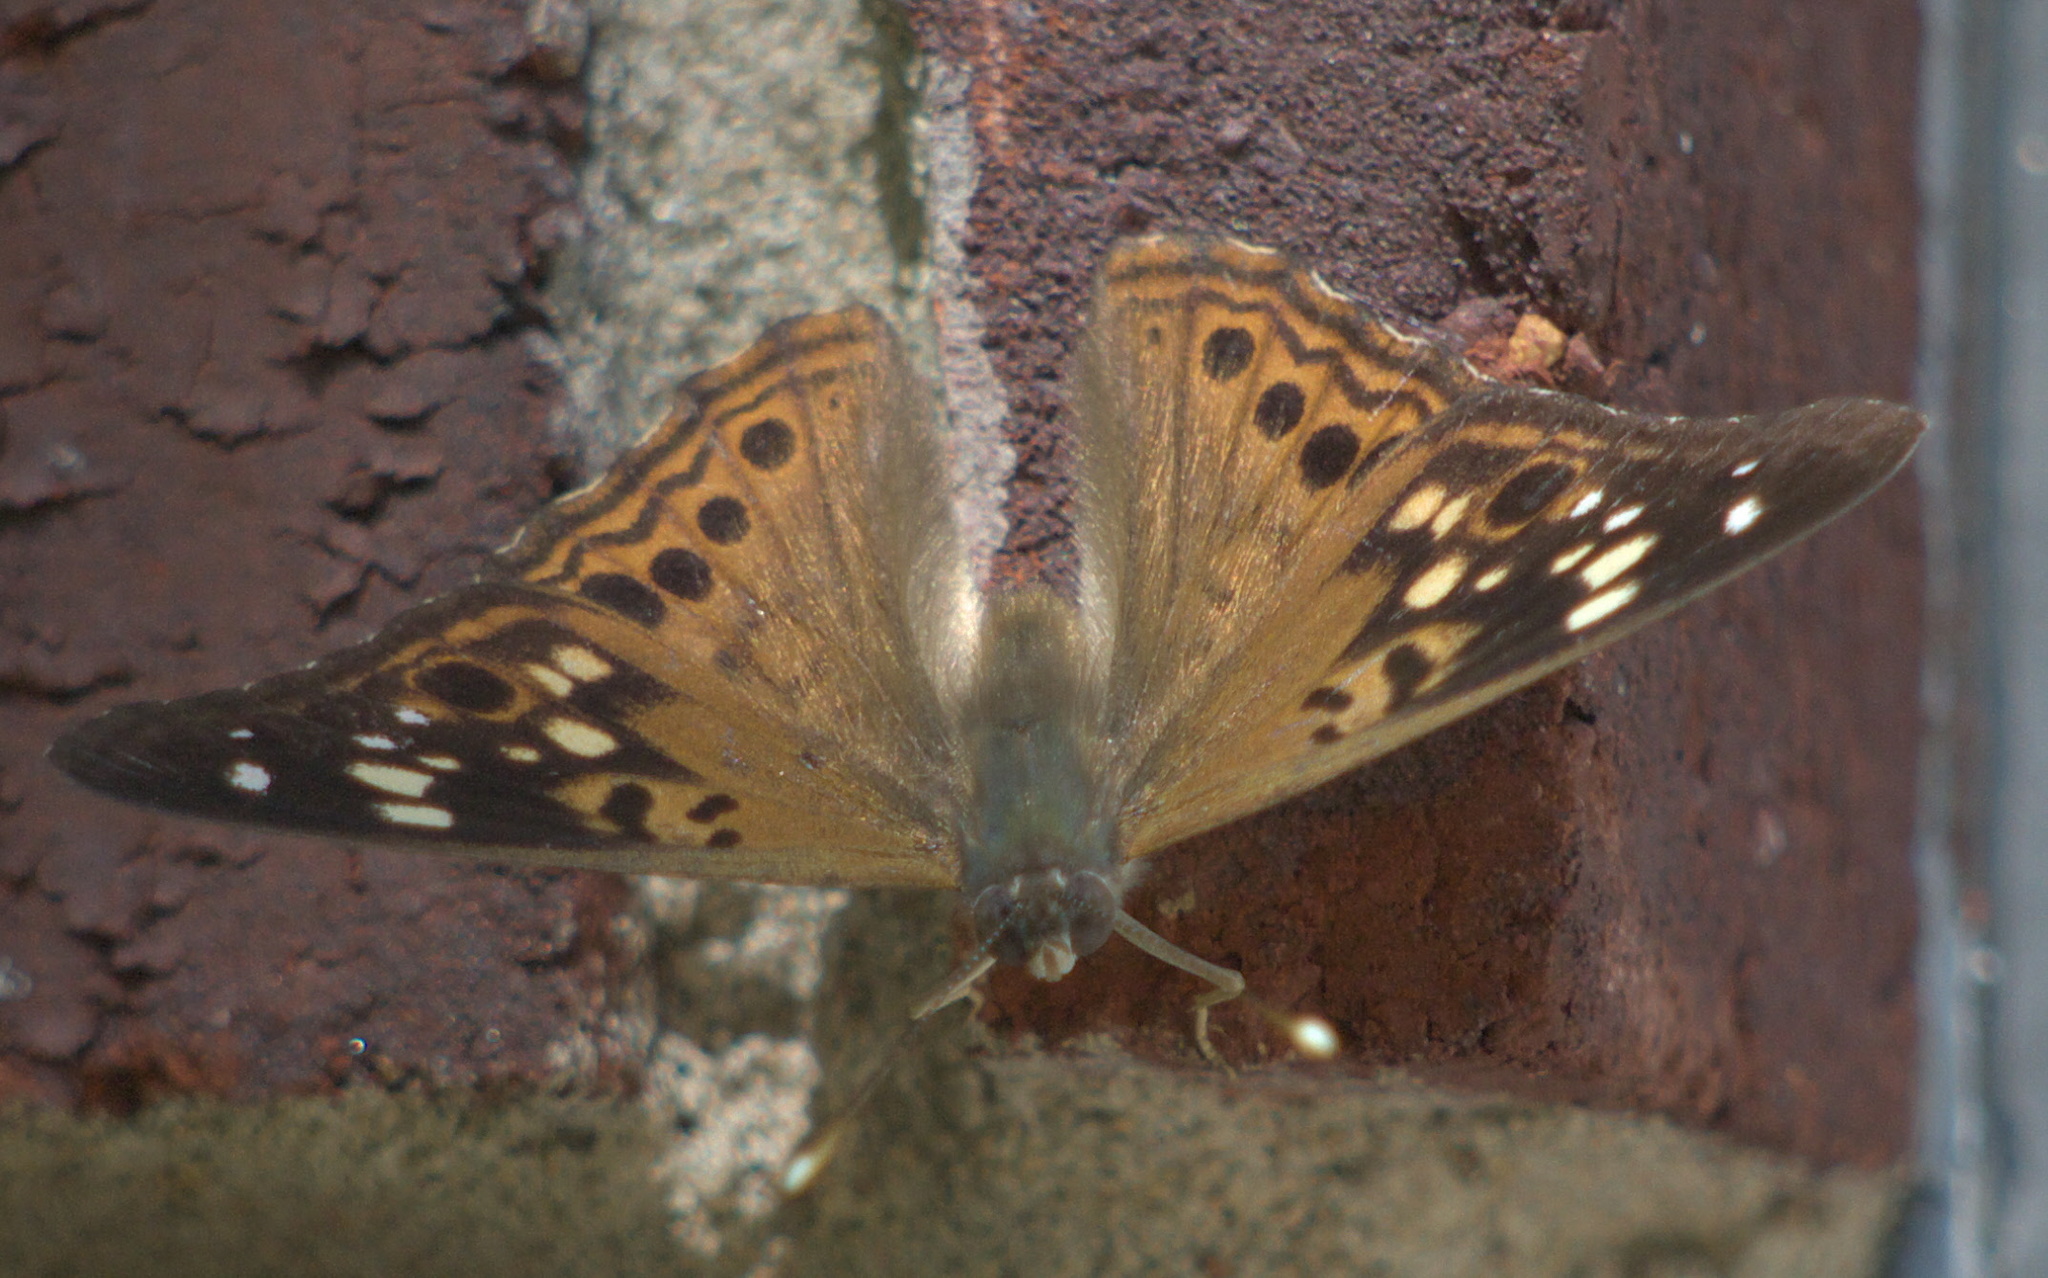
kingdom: Animalia
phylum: Arthropoda
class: Insecta
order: Lepidoptera
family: Nymphalidae
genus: Asterocampa
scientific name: Asterocampa celtis
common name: Hackberry emperor
